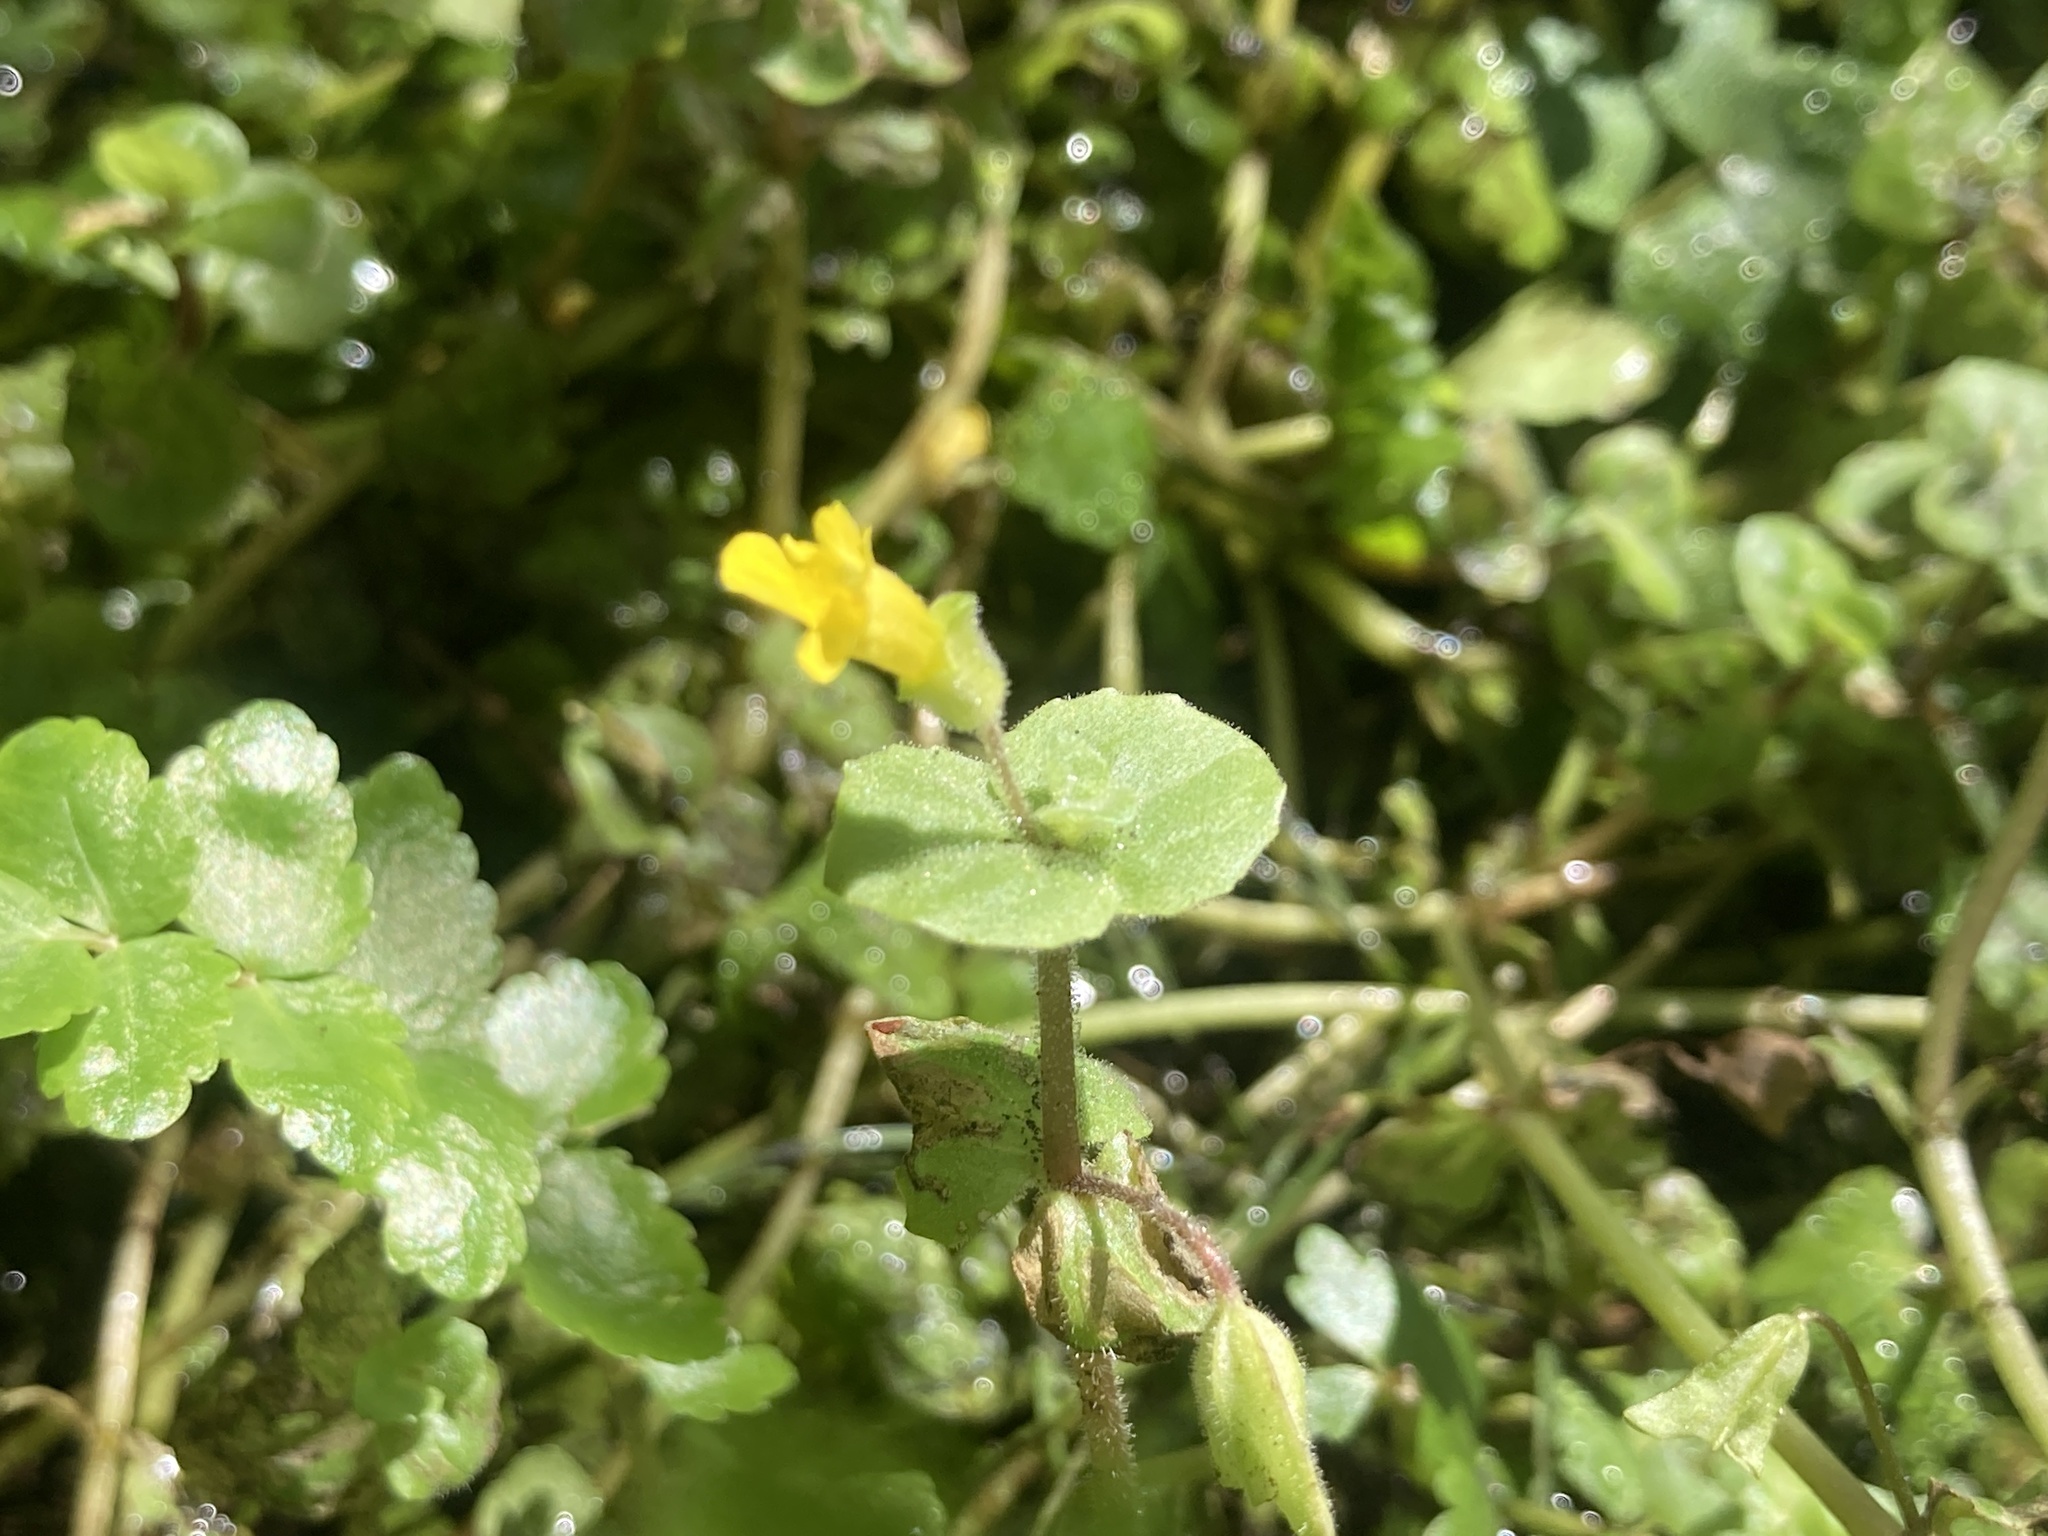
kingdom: Plantae
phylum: Tracheophyta
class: Magnoliopsida
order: Lamiales
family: Phrymaceae
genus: Erythranthe
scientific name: Erythranthe geyeri
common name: Geyer's monkeyflower
